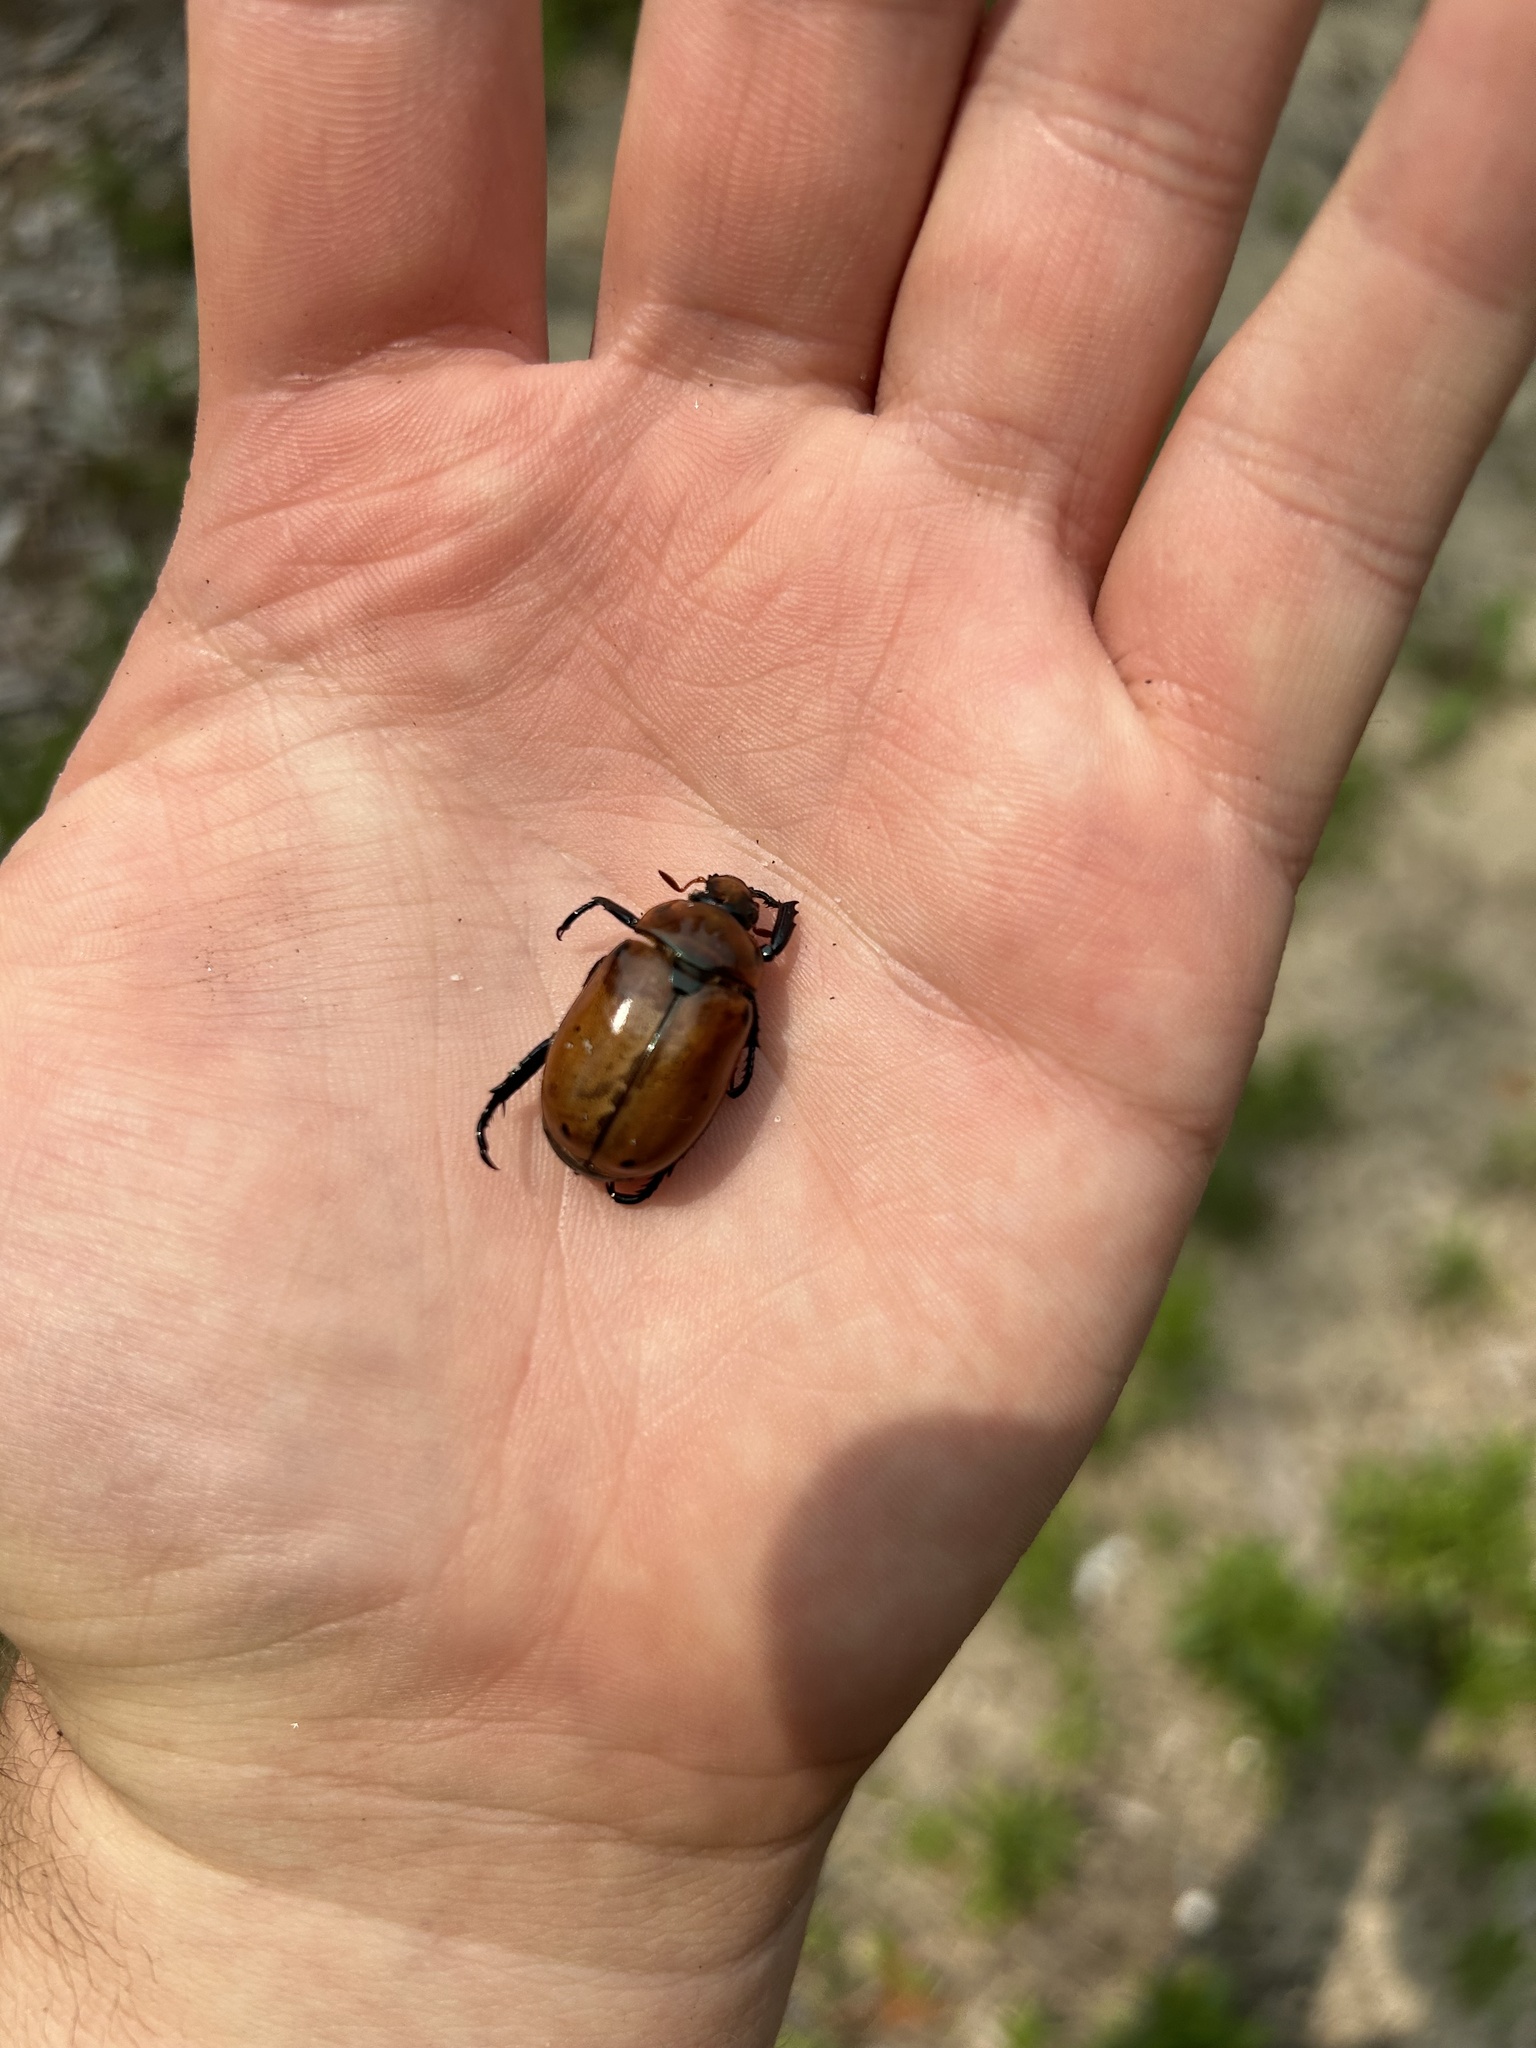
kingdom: Animalia
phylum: Arthropoda
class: Insecta
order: Coleoptera
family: Scarabaeidae
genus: Pelidnota
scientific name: Pelidnota punctata
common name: Grapevine beetle
